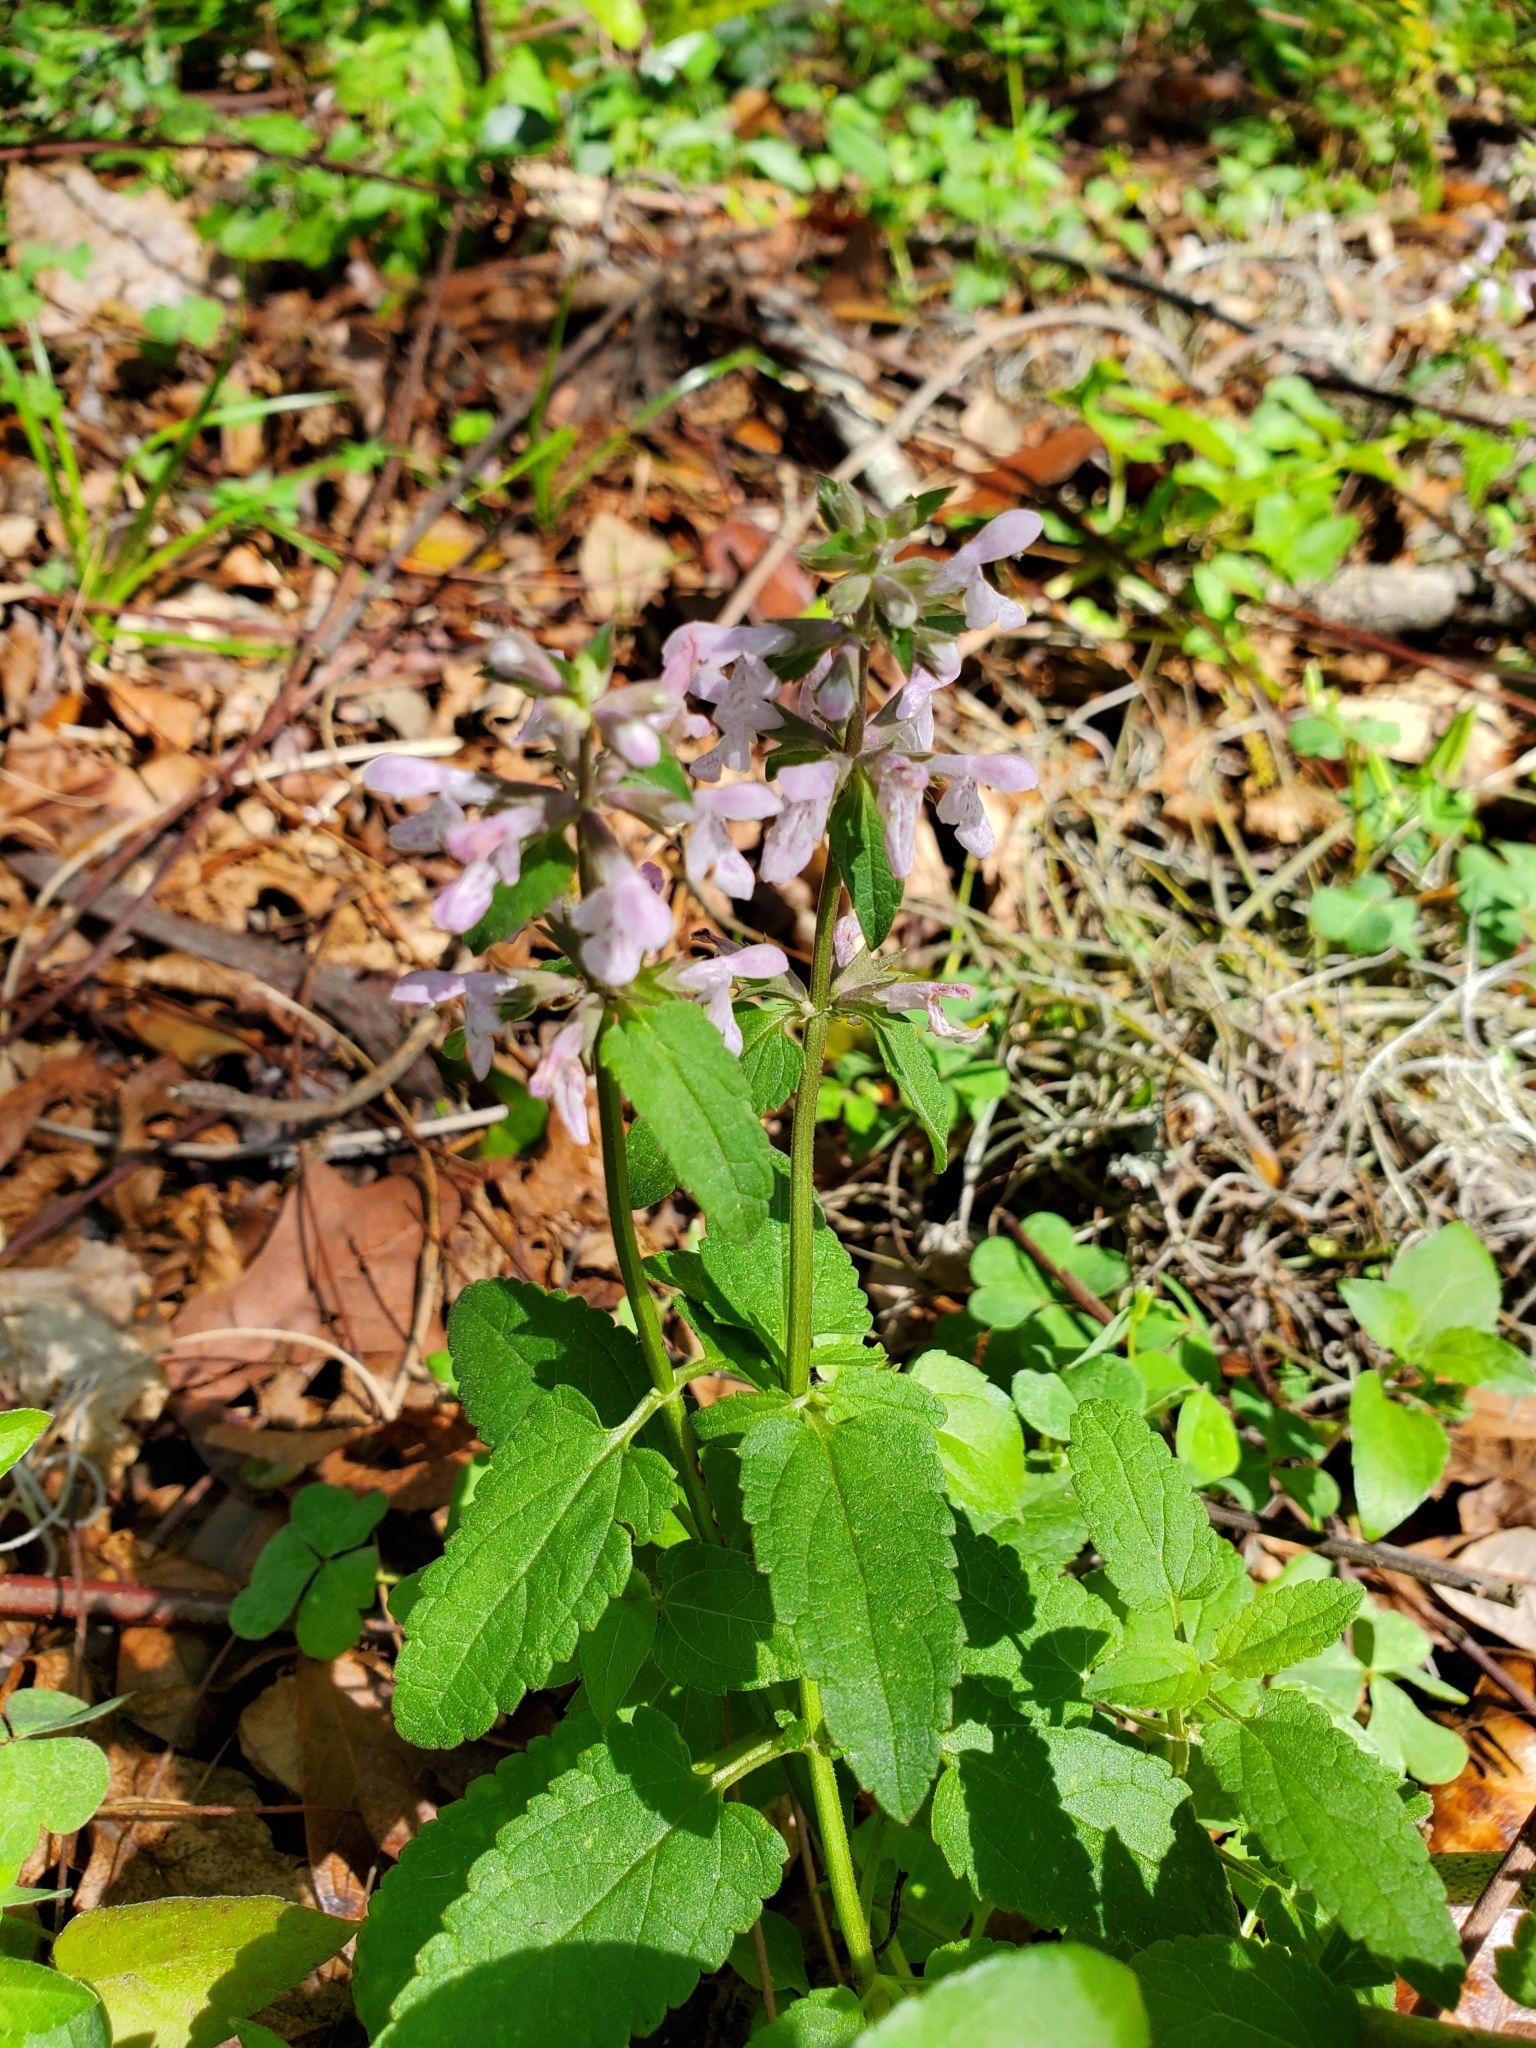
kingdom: Plantae
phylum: Tracheophyta
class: Magnoliopsida
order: Lamiales
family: Lamiaceae
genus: Stachys
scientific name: Stachys floridana
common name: Florida betony
